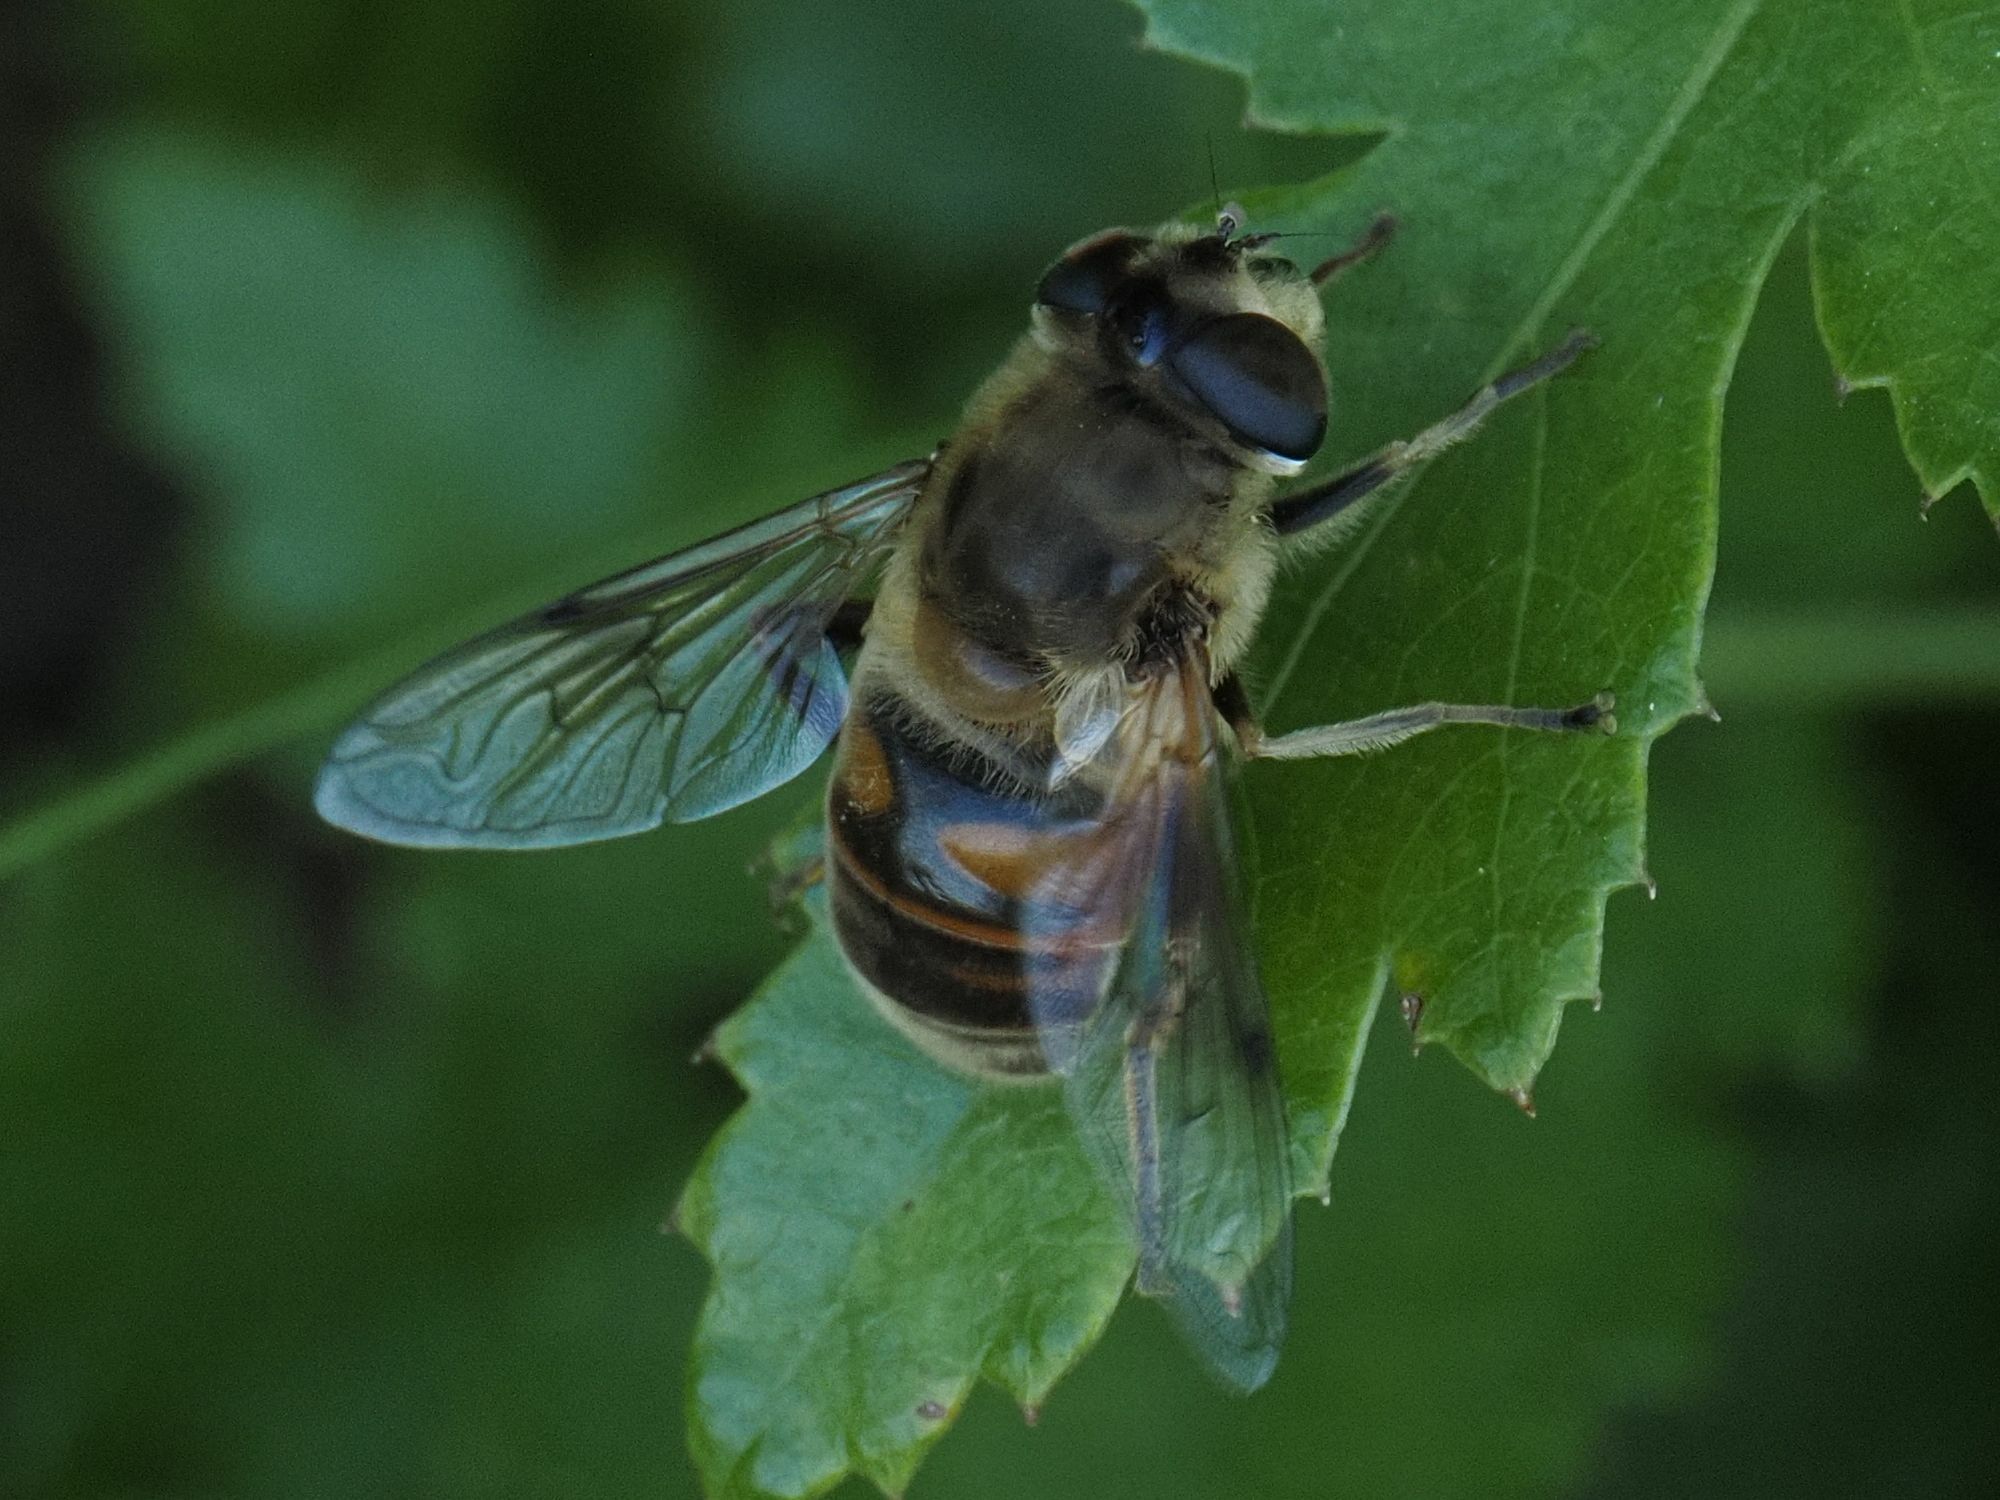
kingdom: Animalia
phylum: Arthropoda
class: Insecta
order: Diptera
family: Syrphidae
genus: Eristalis
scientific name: Eristalis tenax
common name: Drone fly
